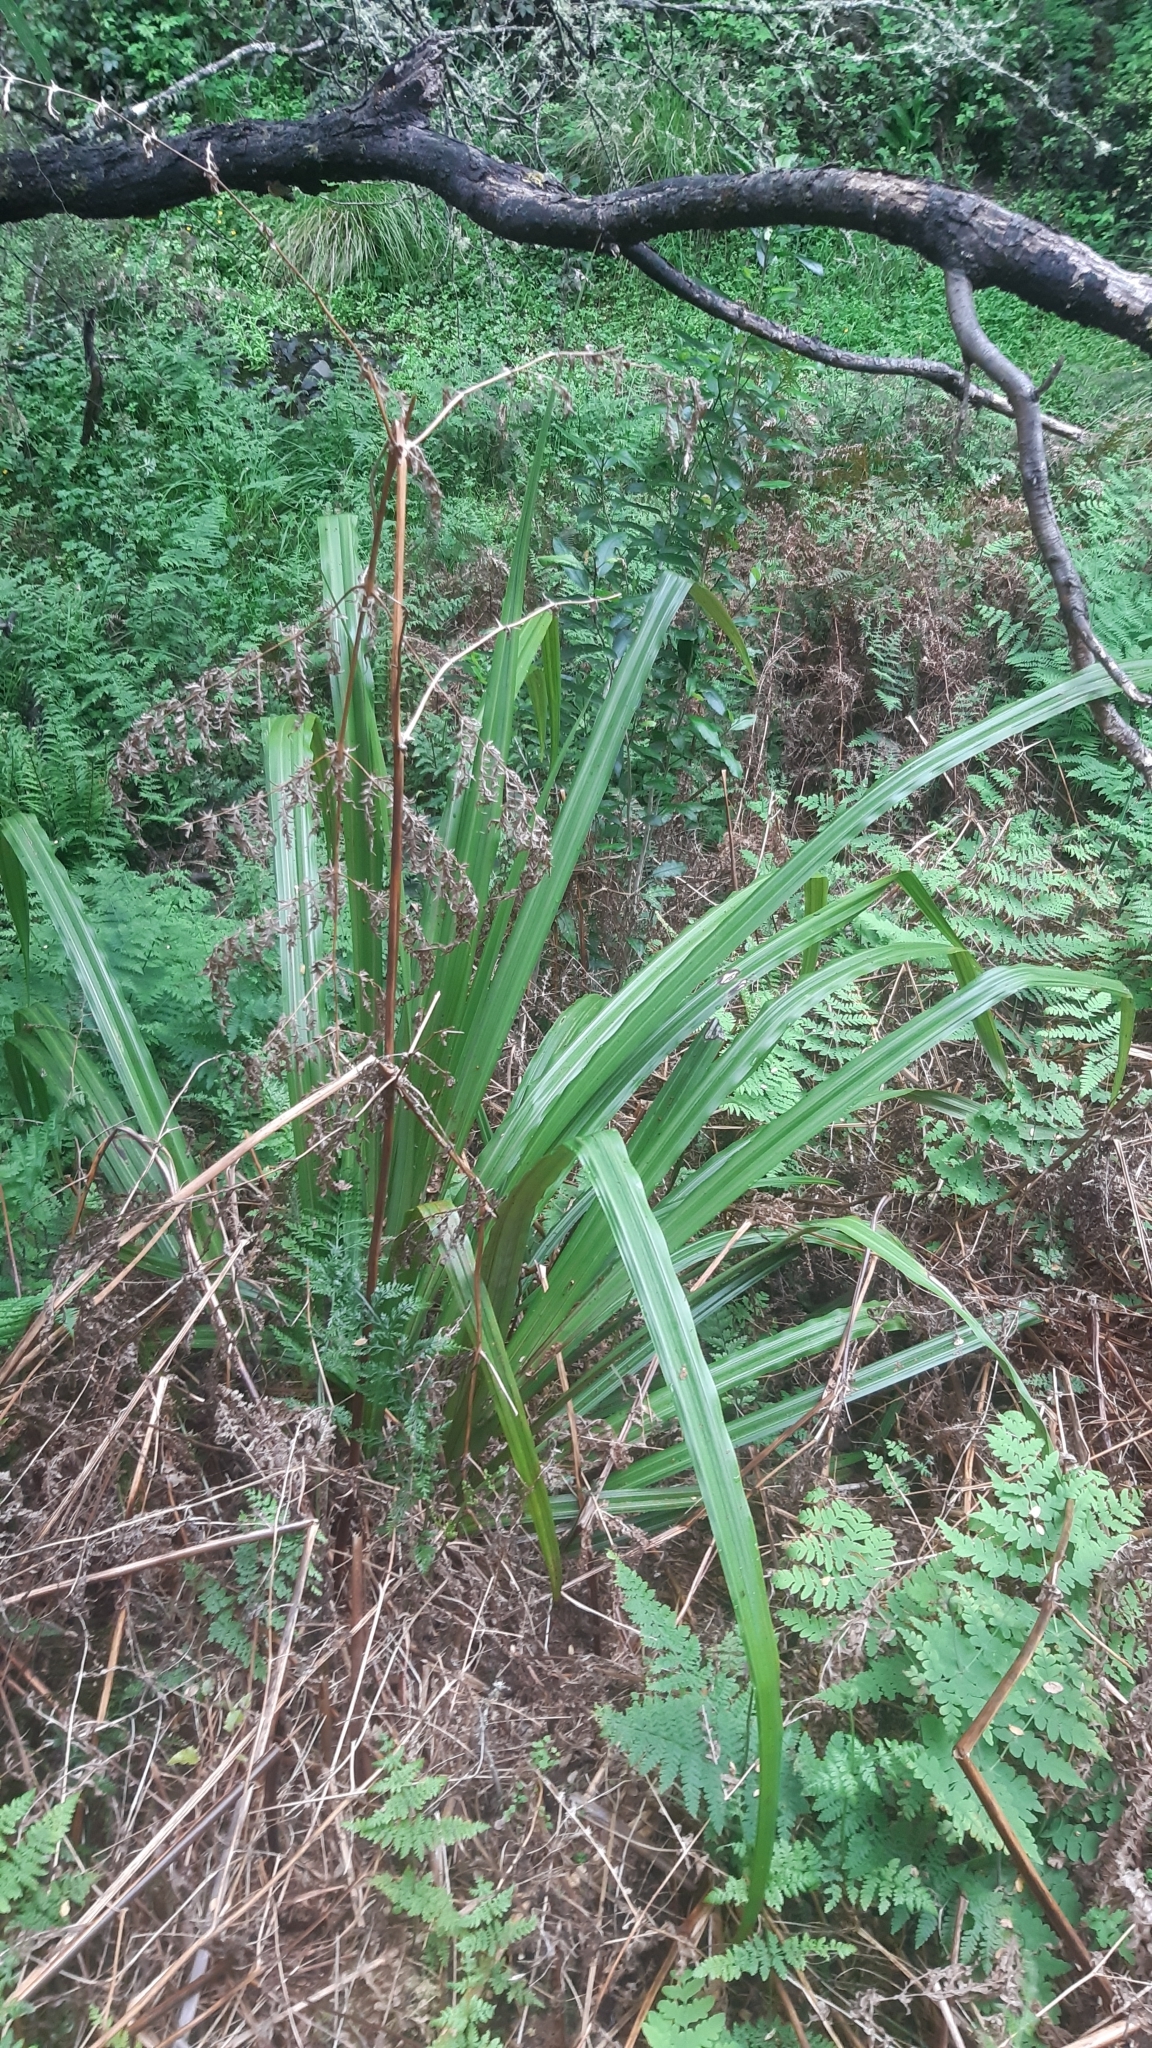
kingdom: Plantae
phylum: Tracheophyta
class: Liliopsida
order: Asparagales
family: Asteliaceae
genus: Astelia
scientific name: Astelia fragrans
